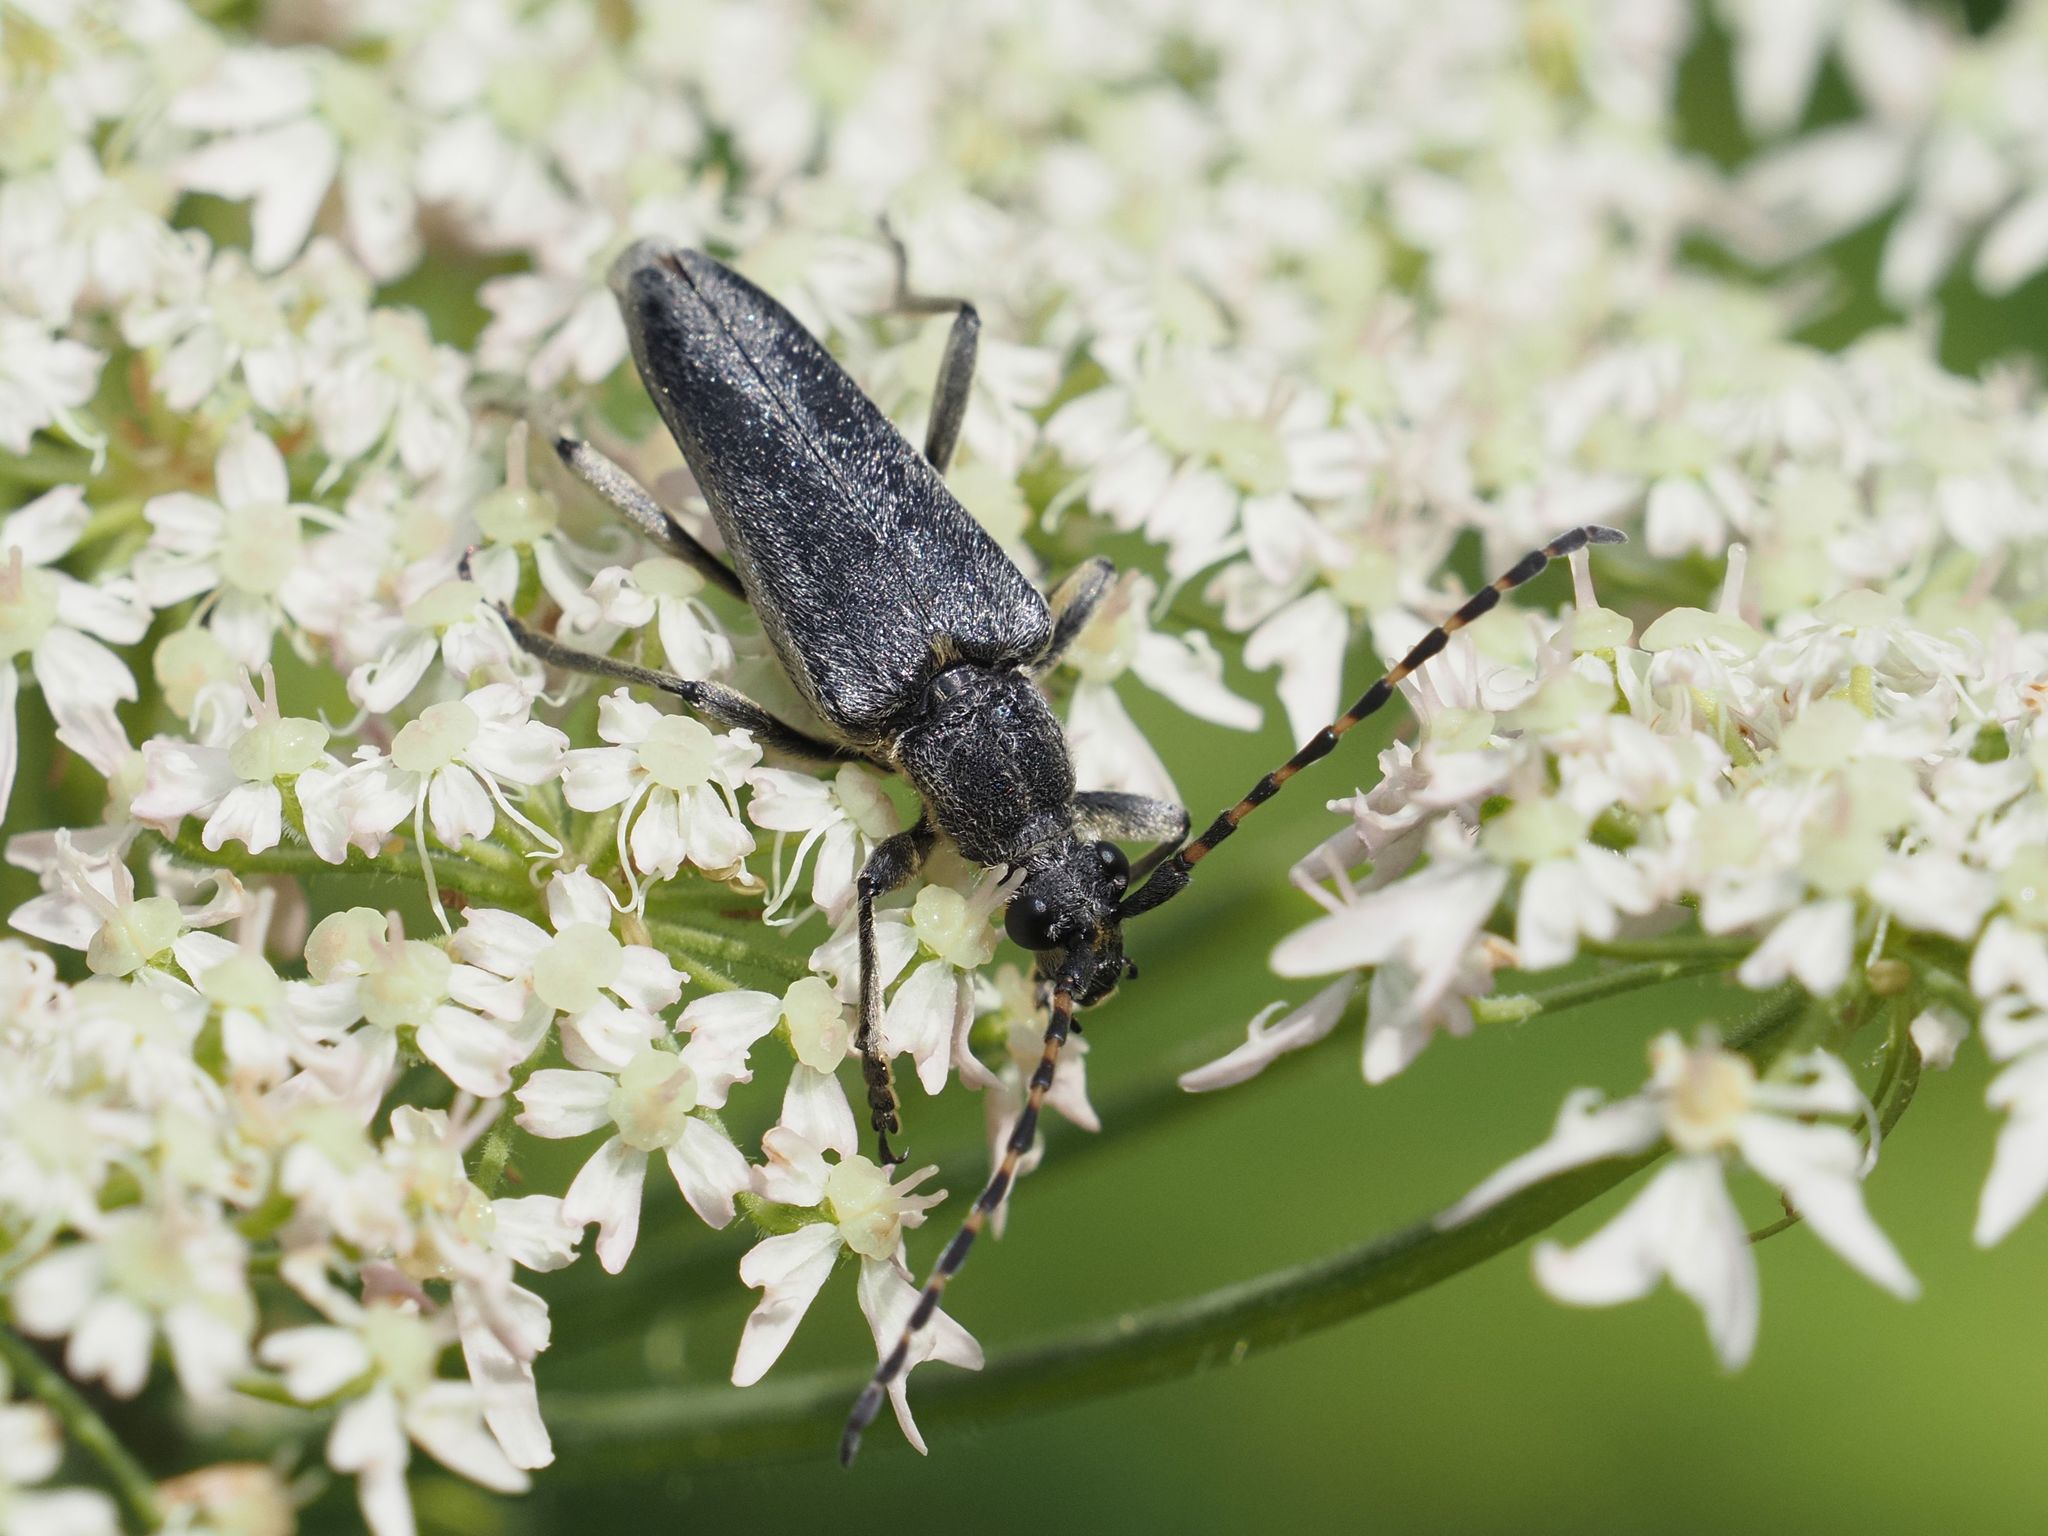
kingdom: Animalia
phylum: Arthropoda
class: Insecta
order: Coleoptera
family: Cerambycidae
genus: Lepturobosca
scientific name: Lepturobosca virens
